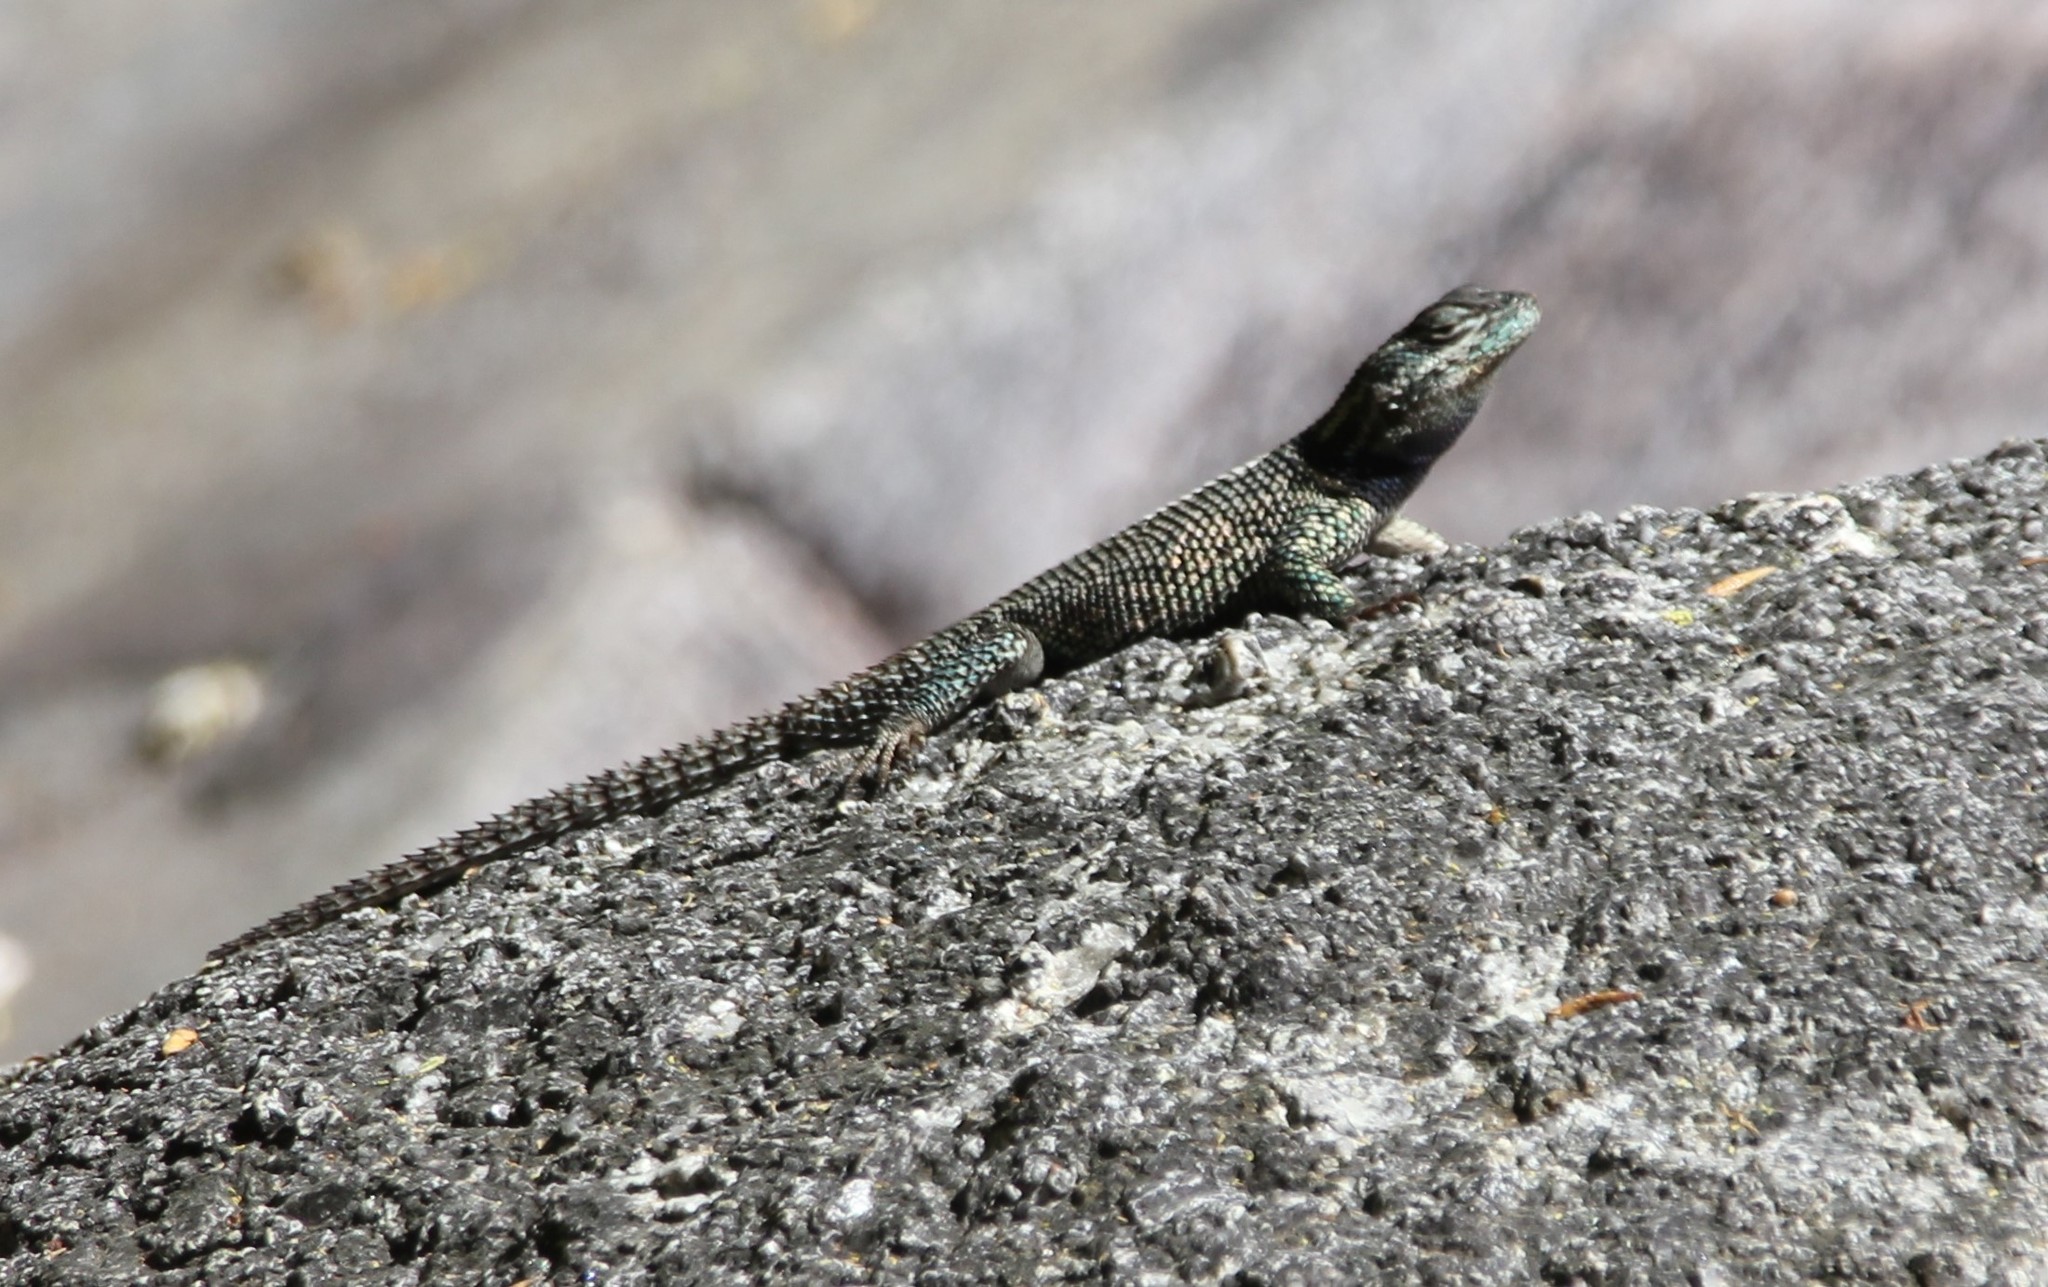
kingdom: Animalia
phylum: Chordata
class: Squamata
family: Phrynosomatidae
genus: Sceloporus
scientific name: Sceloporus jarrovii
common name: Yarrow's spiny lizard
